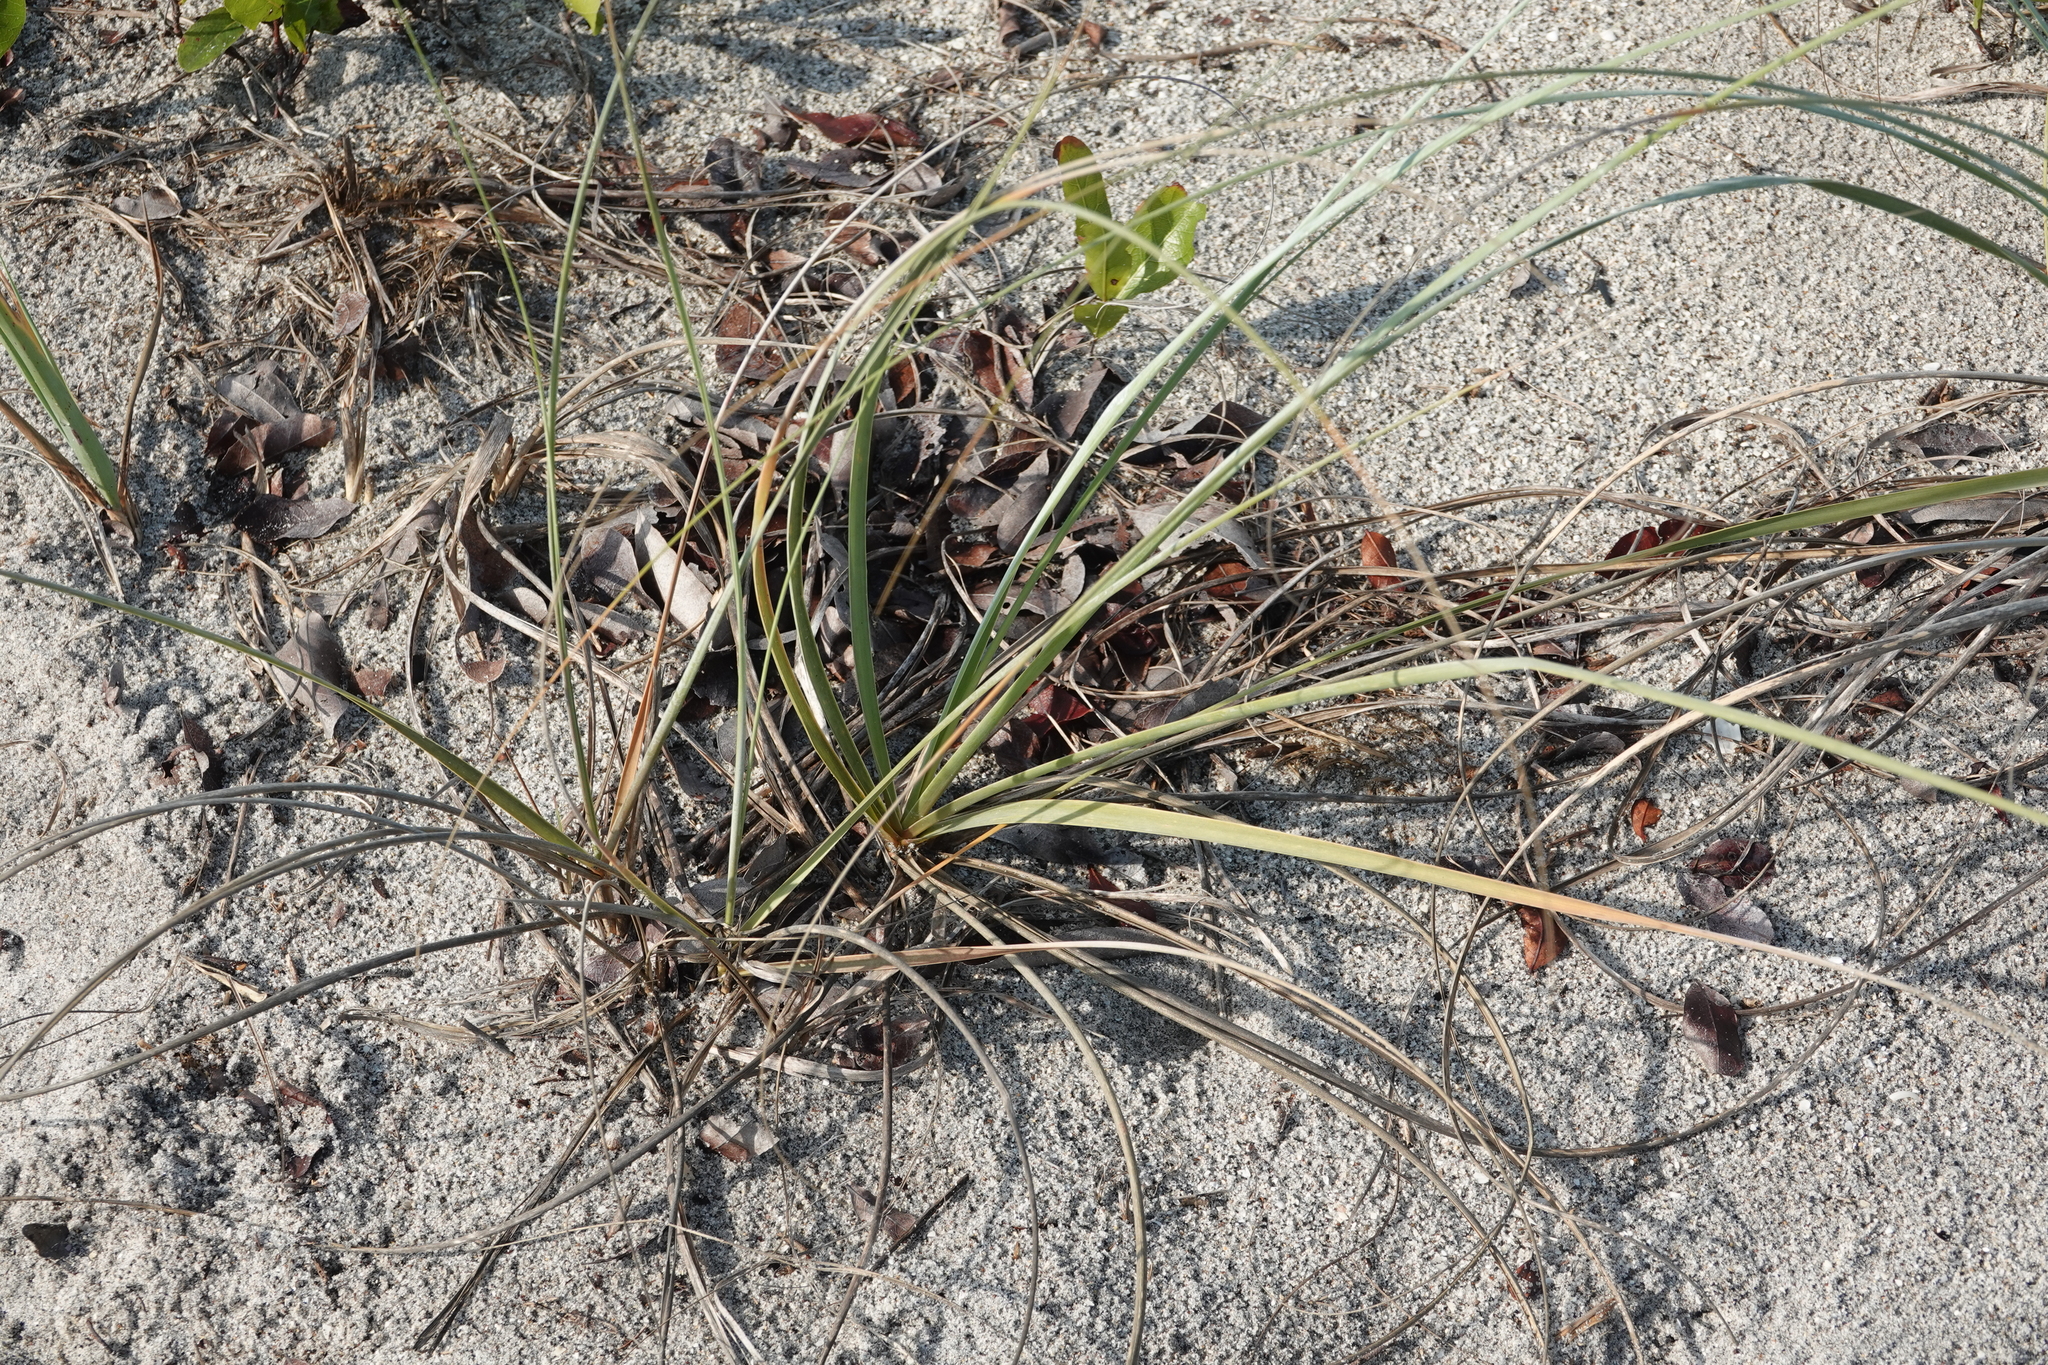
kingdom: Plantae
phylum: Tracheophyta
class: Liliopsida
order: Poales
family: Poaceae
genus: Uniola
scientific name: Uniola paniculata
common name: Seaside-oats
